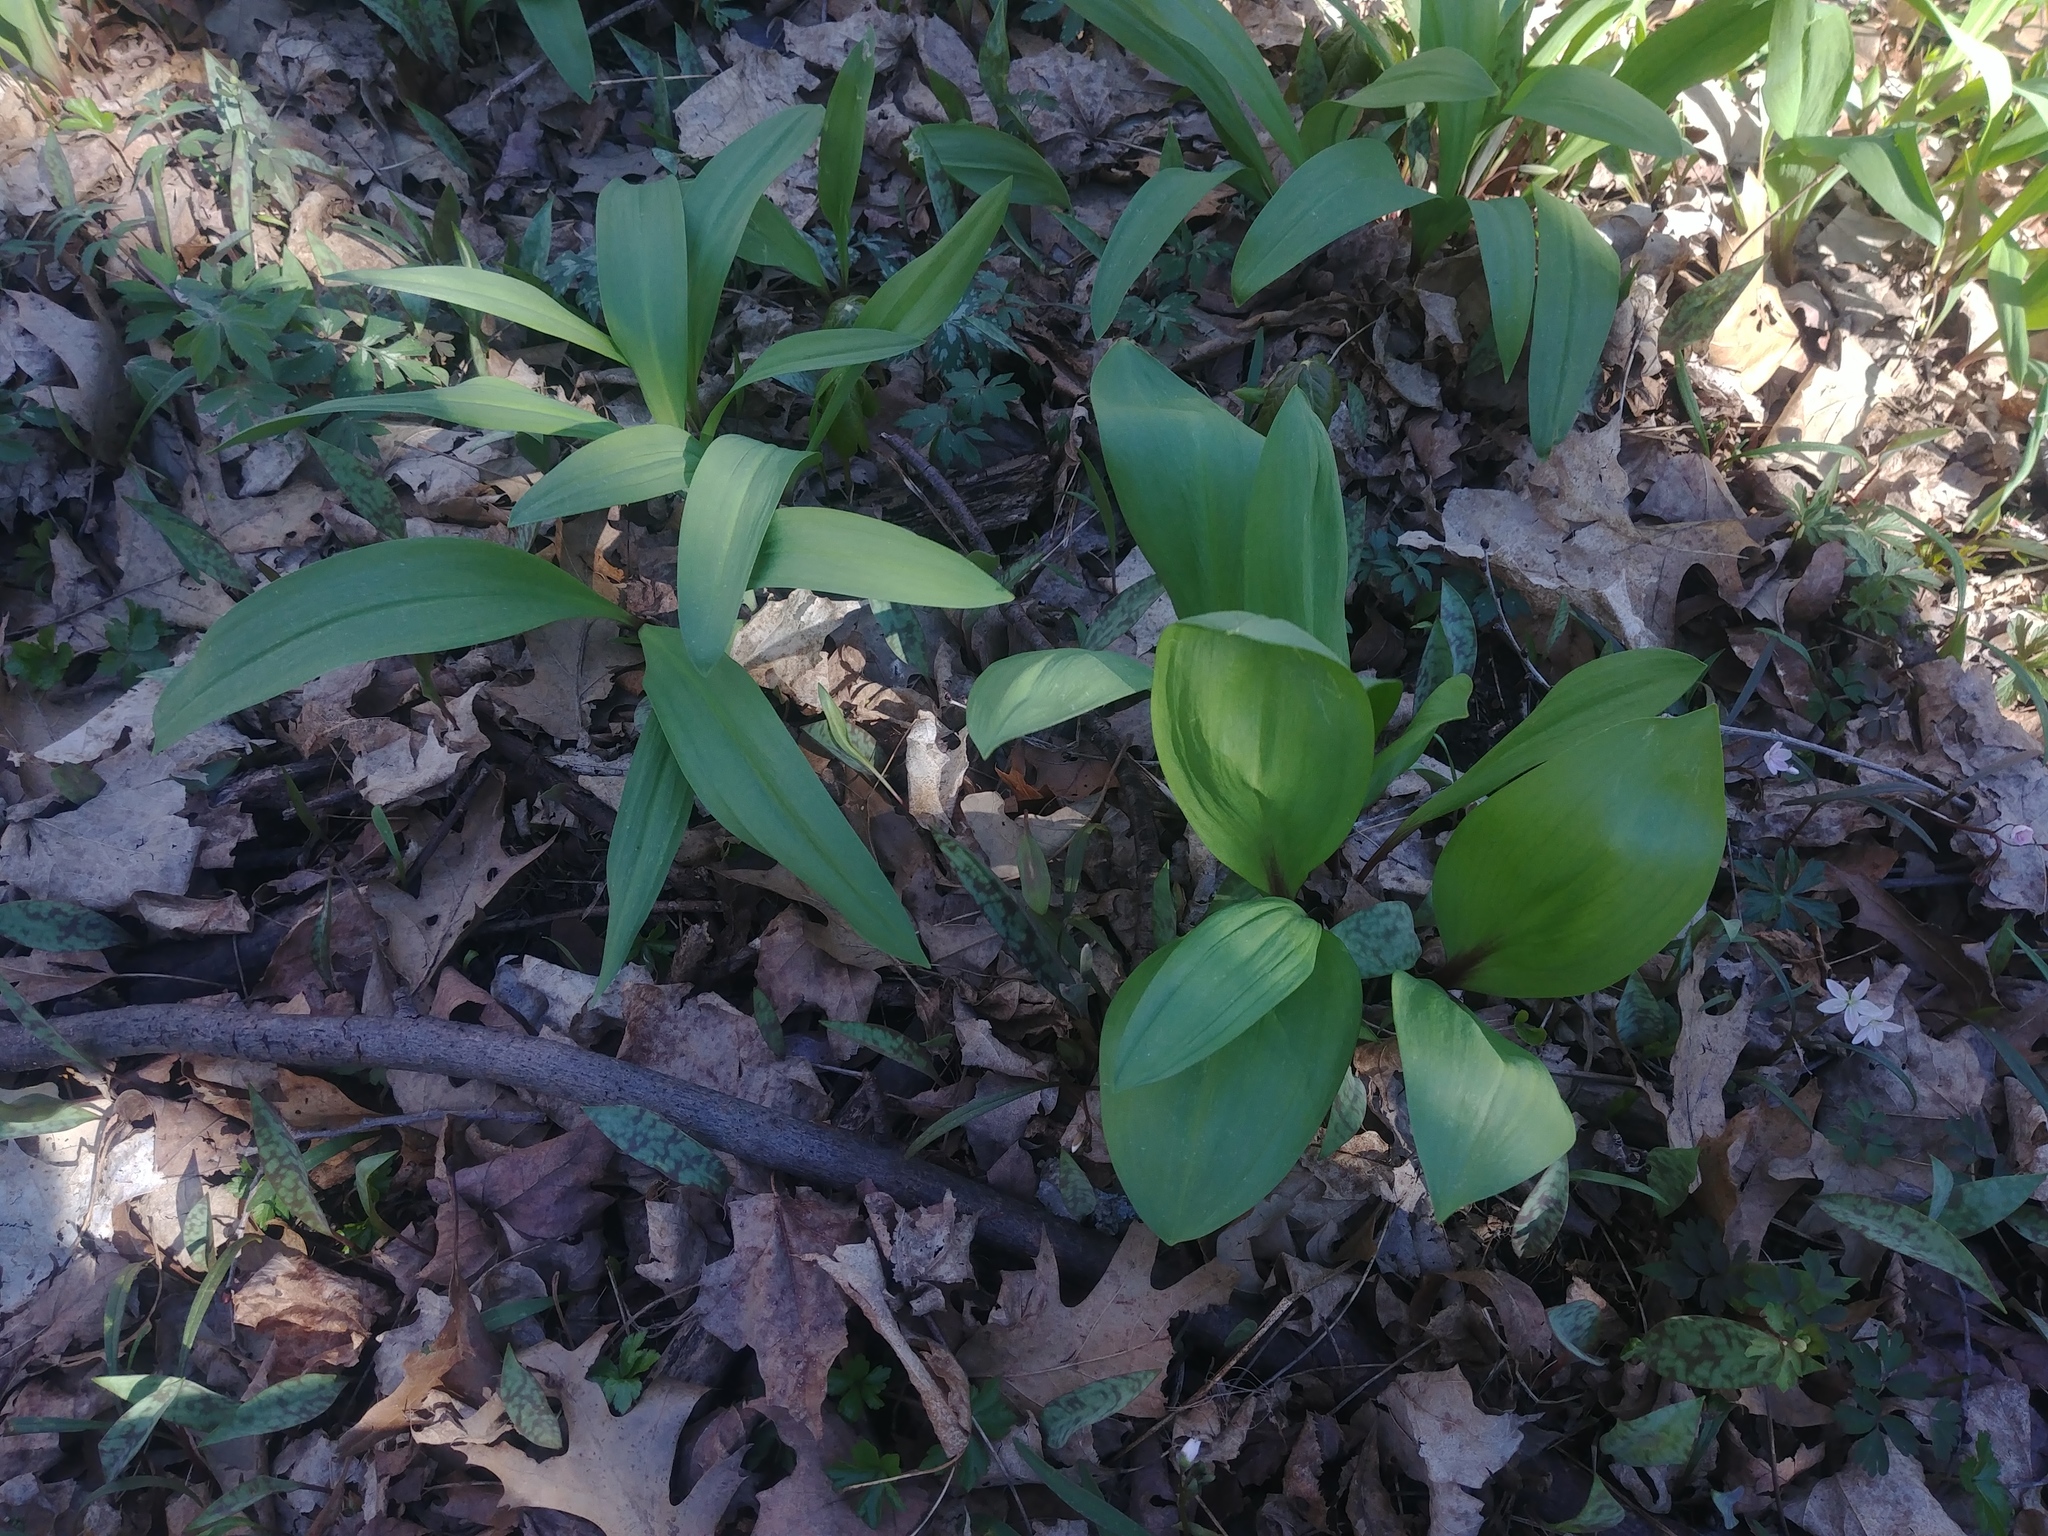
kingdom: Plantae
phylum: Tracheophyta
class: Liliopsida
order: Asparagales
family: Amaryllidaceae
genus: Allium
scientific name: Allium tricoccum
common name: Ramp
